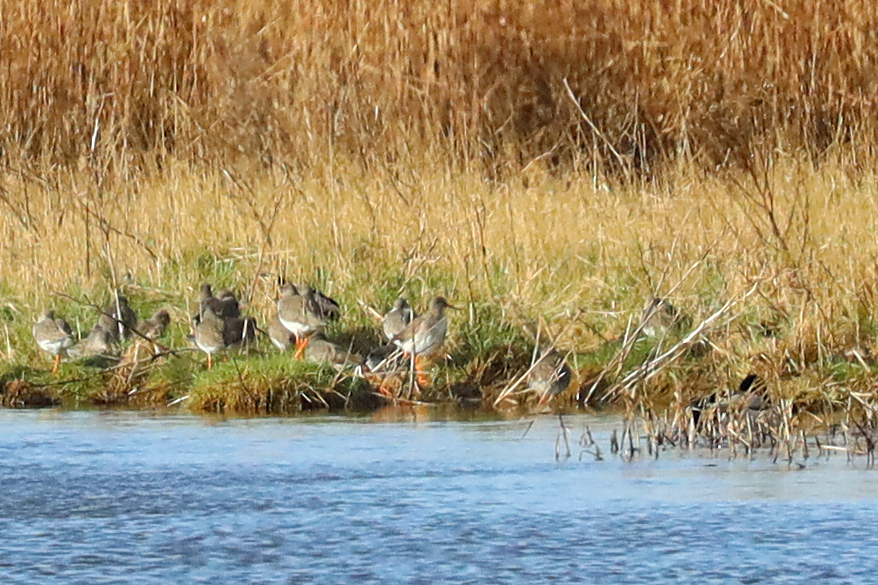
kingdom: Animalia
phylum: Chordata
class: Aves
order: Charadriiformes
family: Scolopacidae
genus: Tringa
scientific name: Tringa totanus
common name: Common redshank
